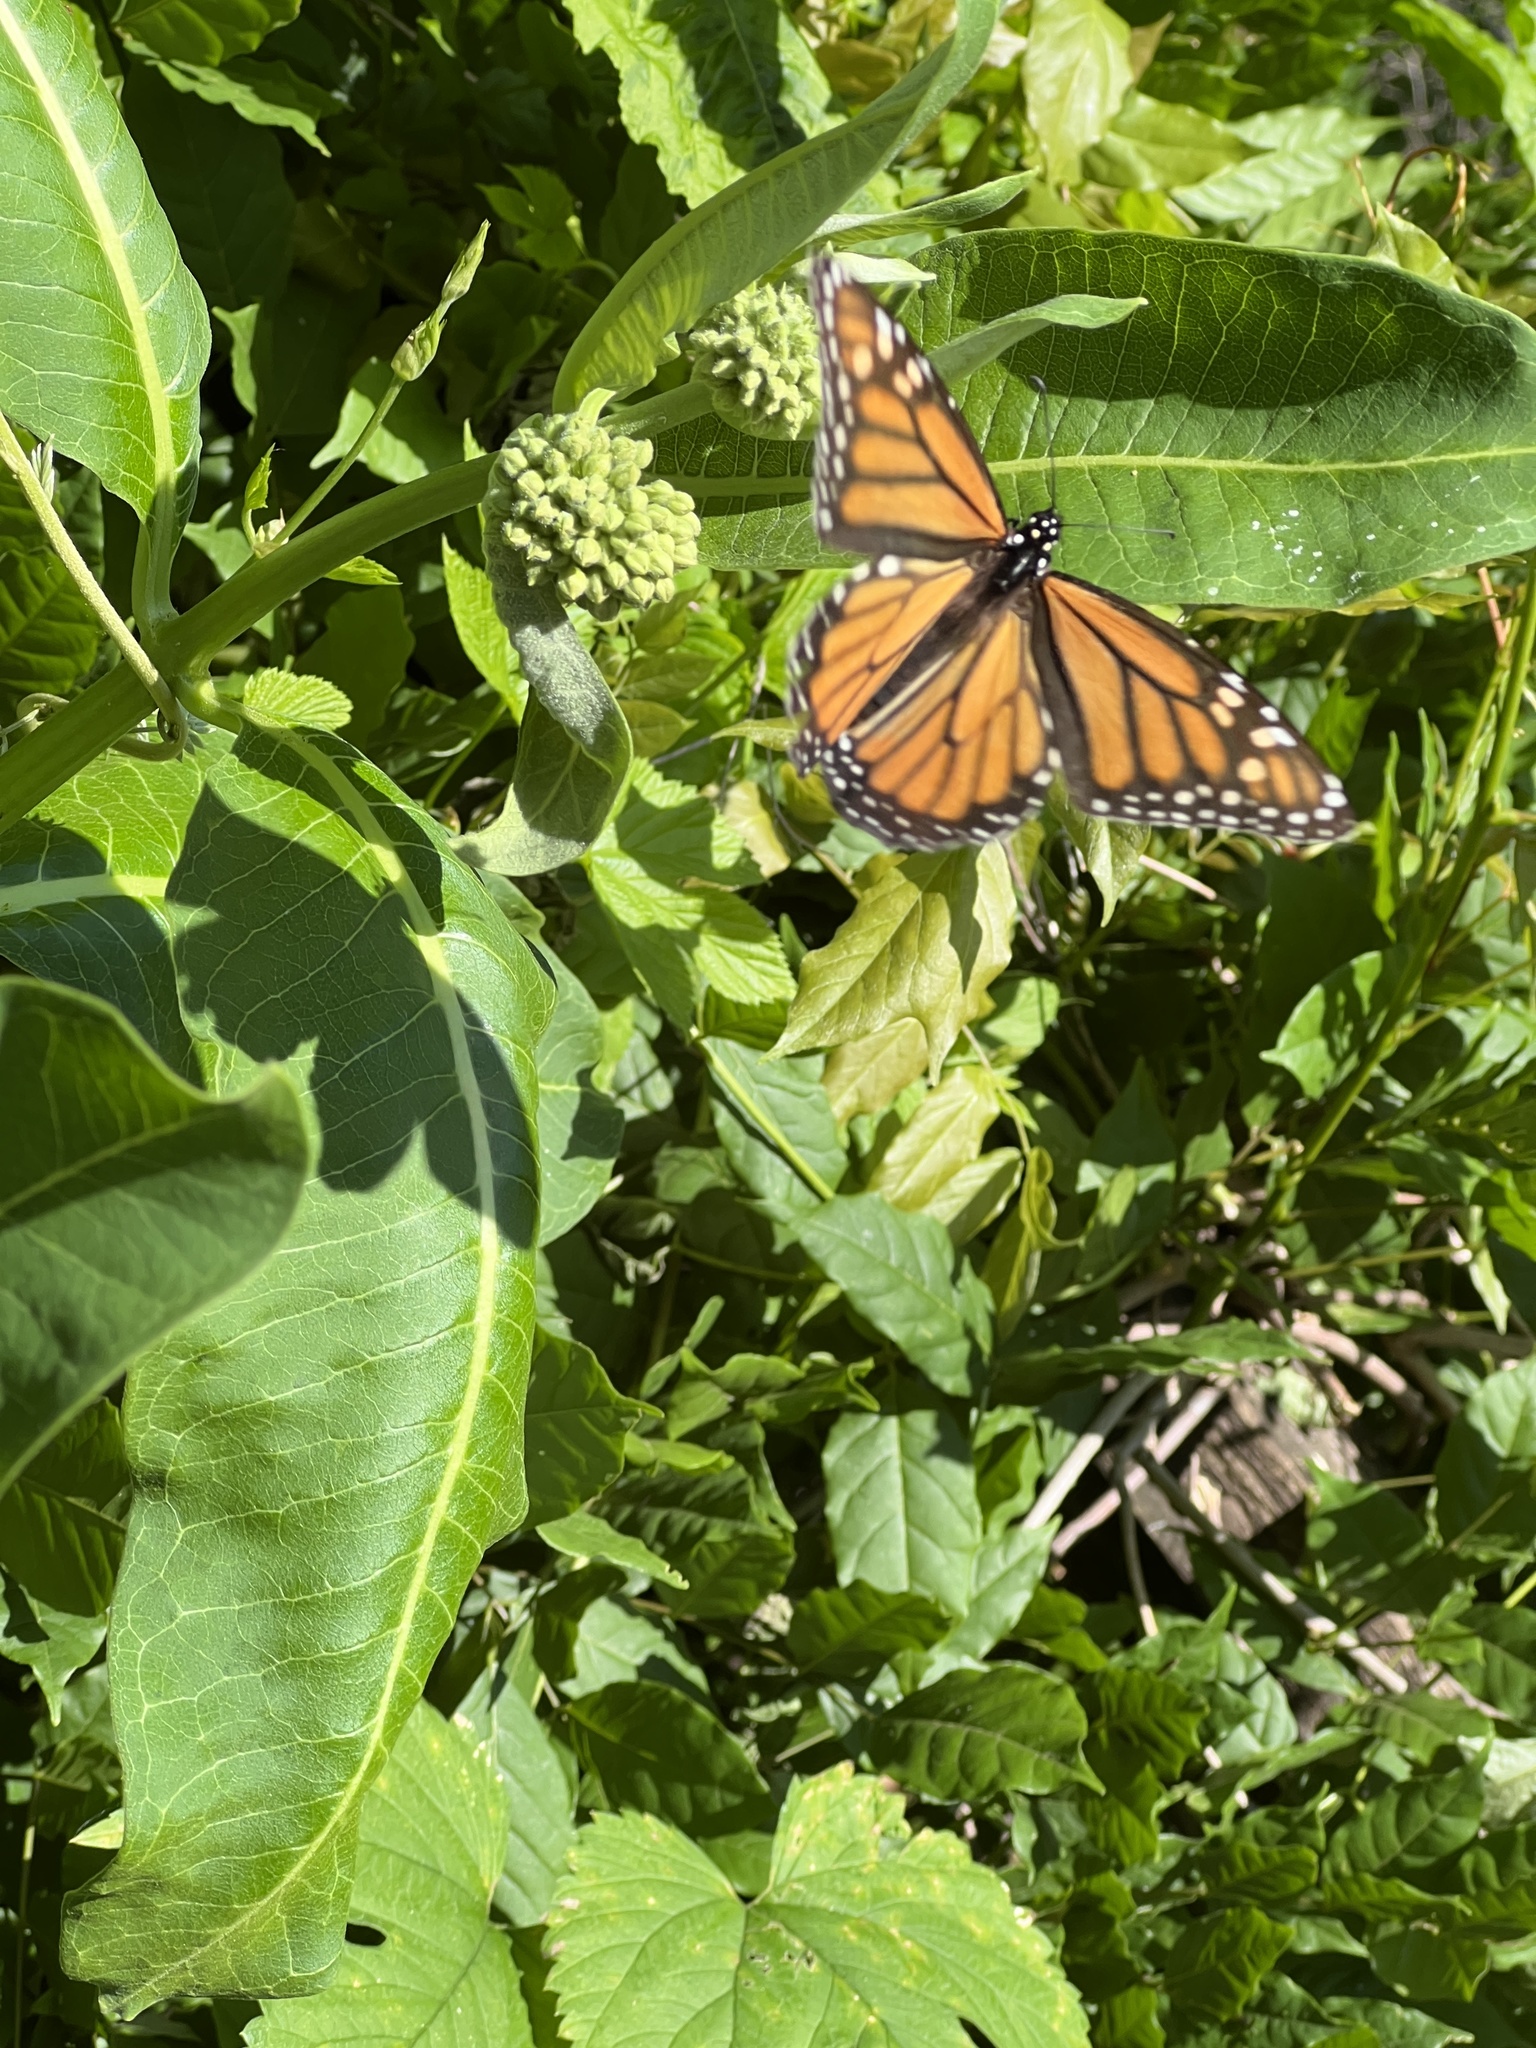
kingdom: Animalia
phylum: Arthropoda
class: Insecta
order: Lepidoptera
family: Nymphalidae
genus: Danaus
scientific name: Danaus plexippus
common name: Monarch
